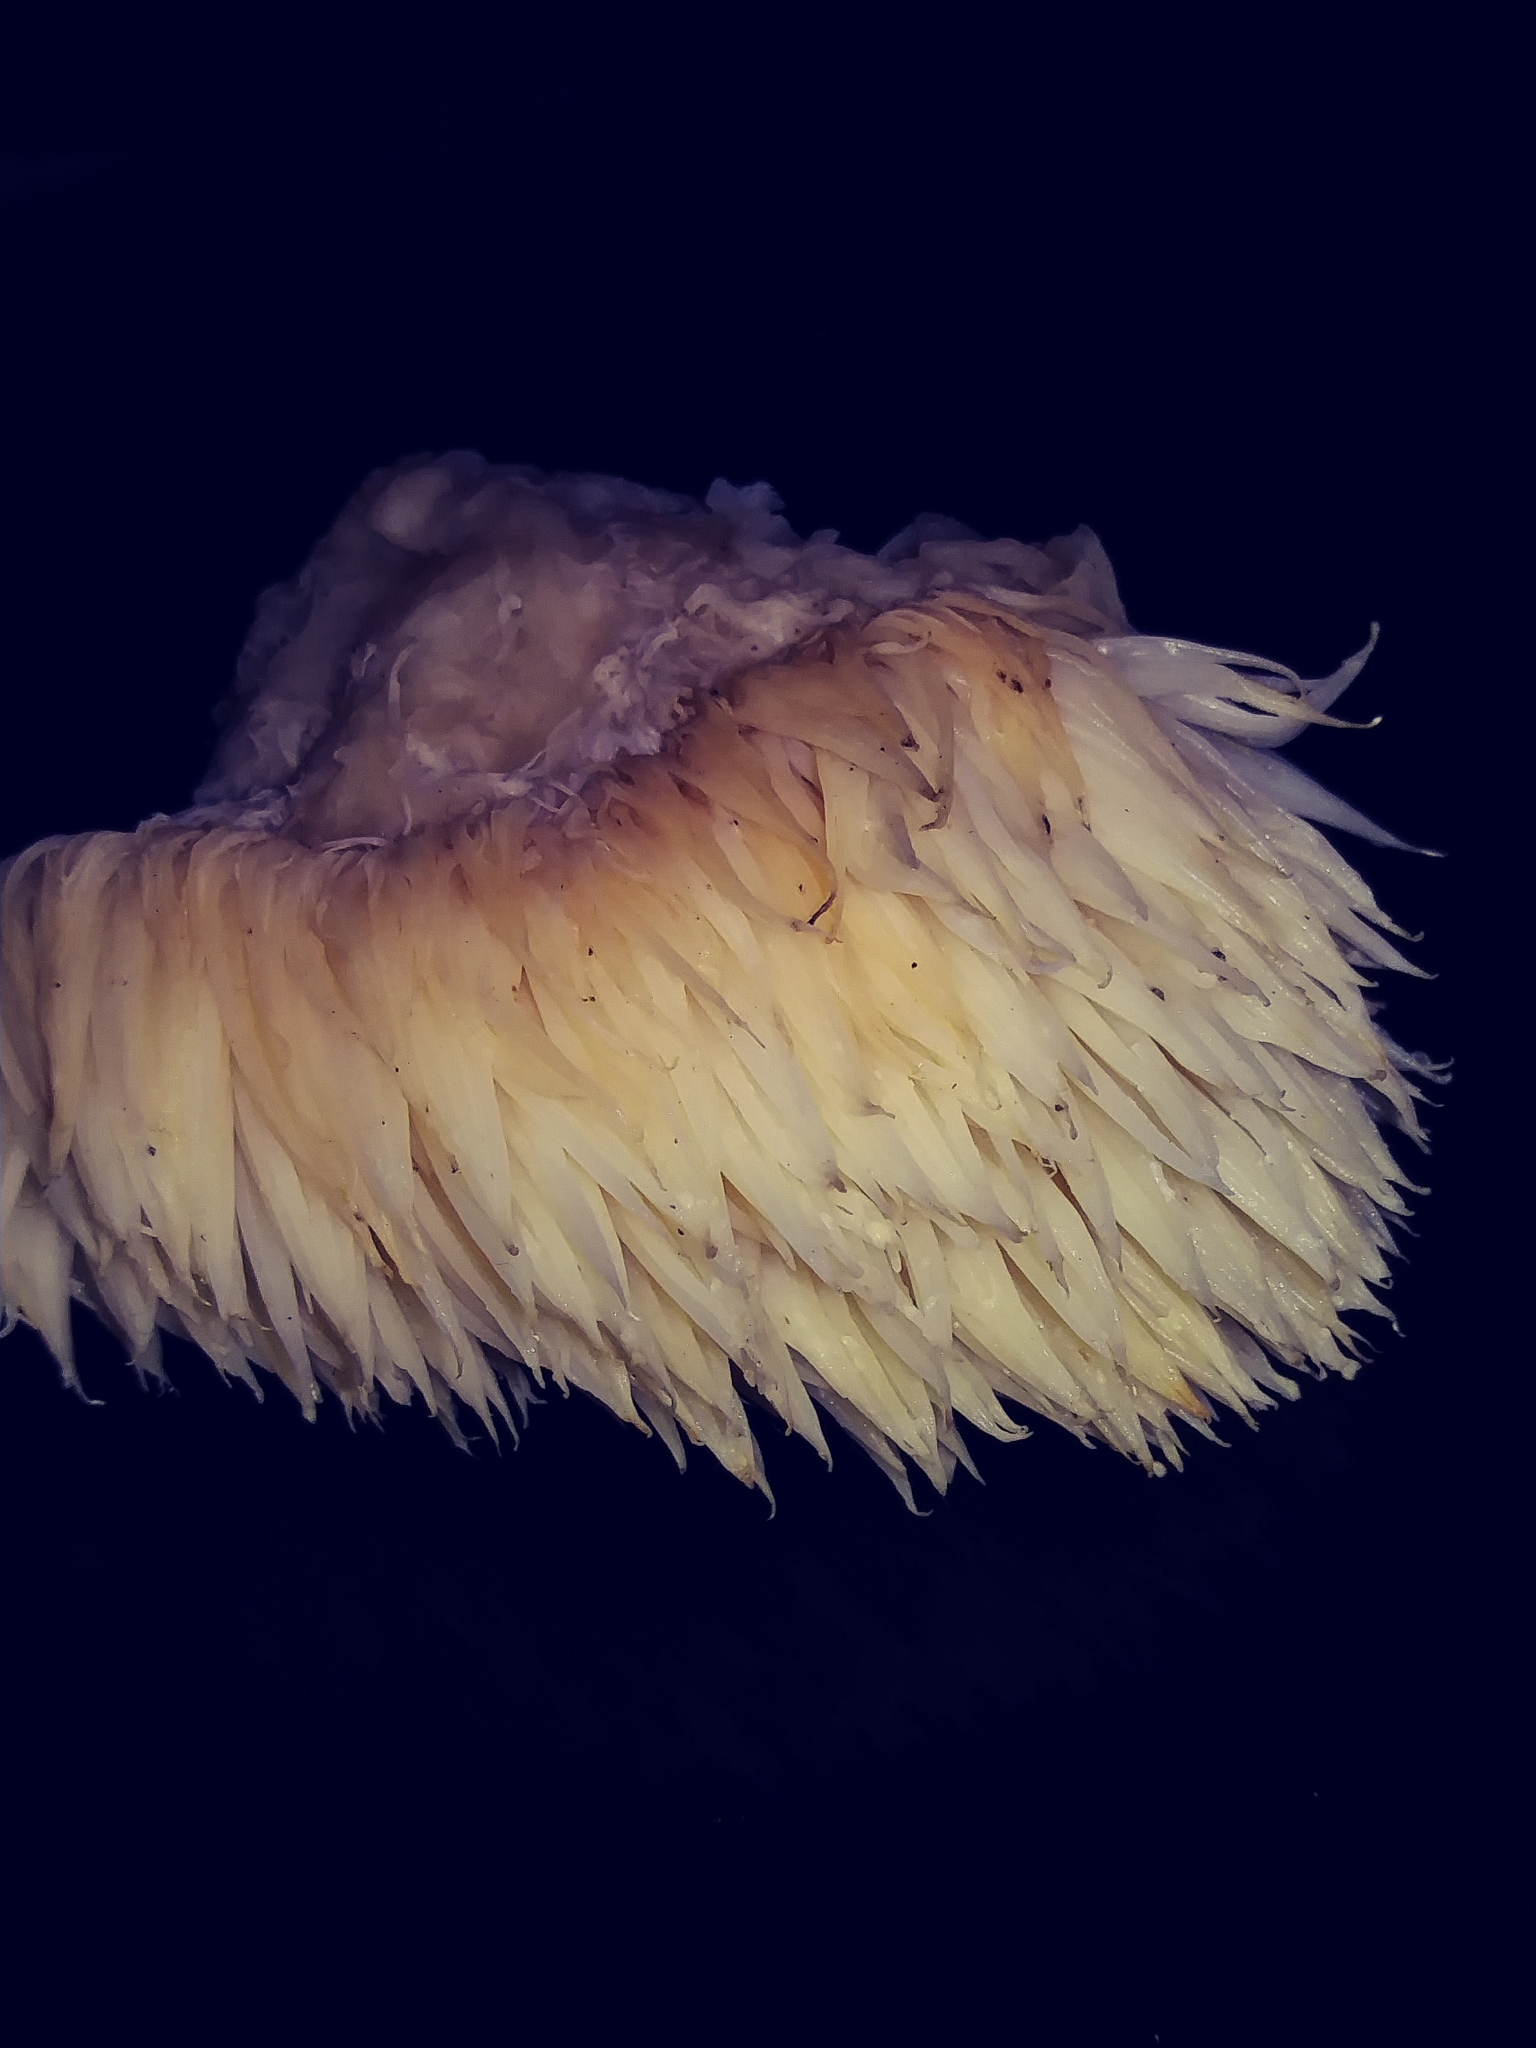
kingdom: Fungi
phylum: Basidiomycota
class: Agaricomycetes
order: Russulales
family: Hericiaceae
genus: Hericium
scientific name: Hericium erinaceus
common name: Bearded tooth
